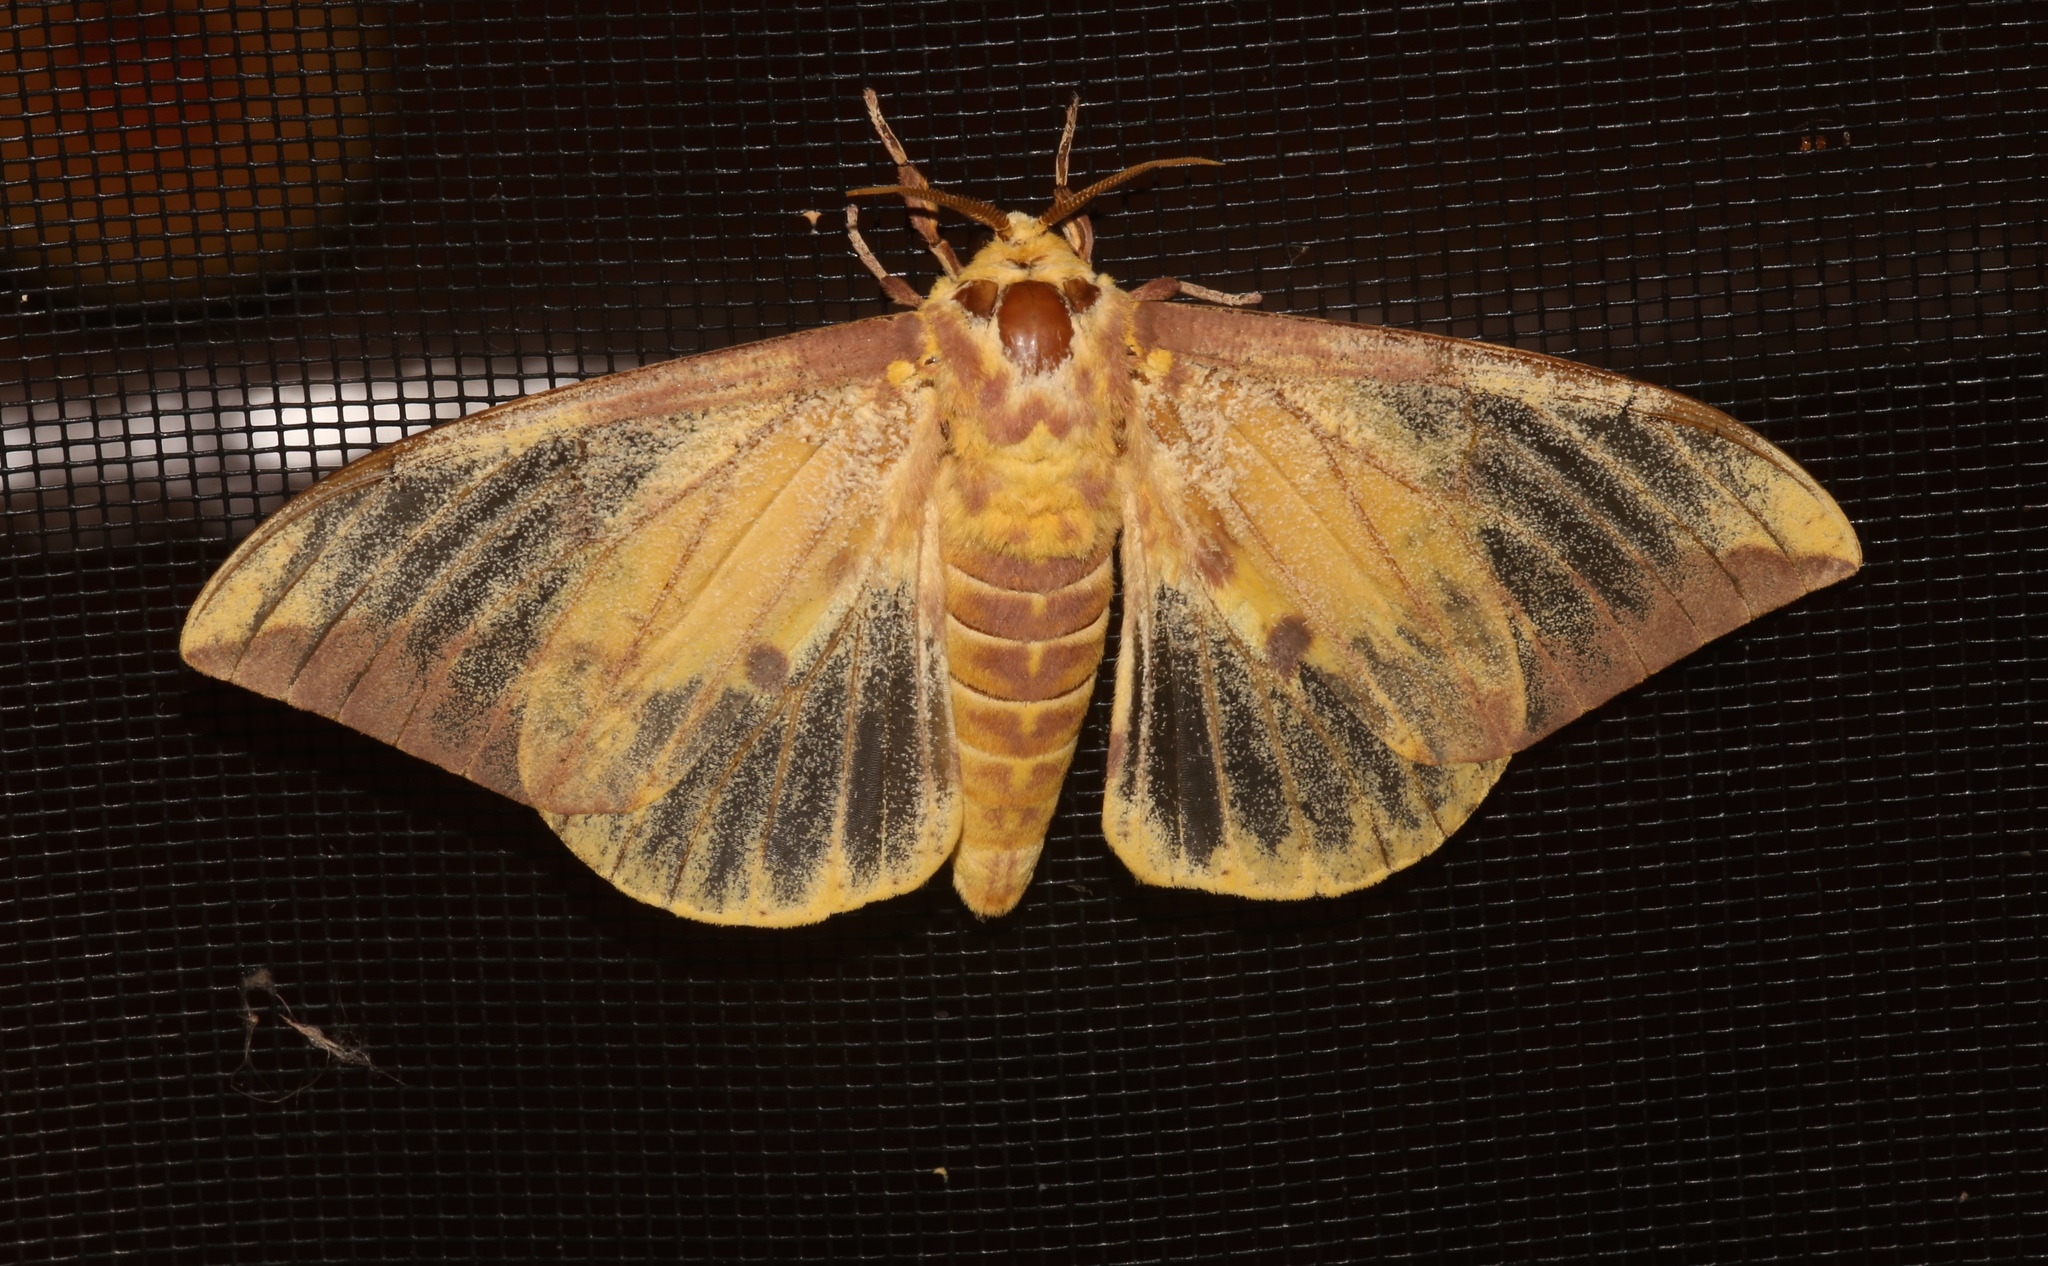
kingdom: Animalia
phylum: Arthropoda
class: Insecta
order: Lepidoptera
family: Saturniidae
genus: Eacles
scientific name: Eacles imperialis
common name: Imperial moth
